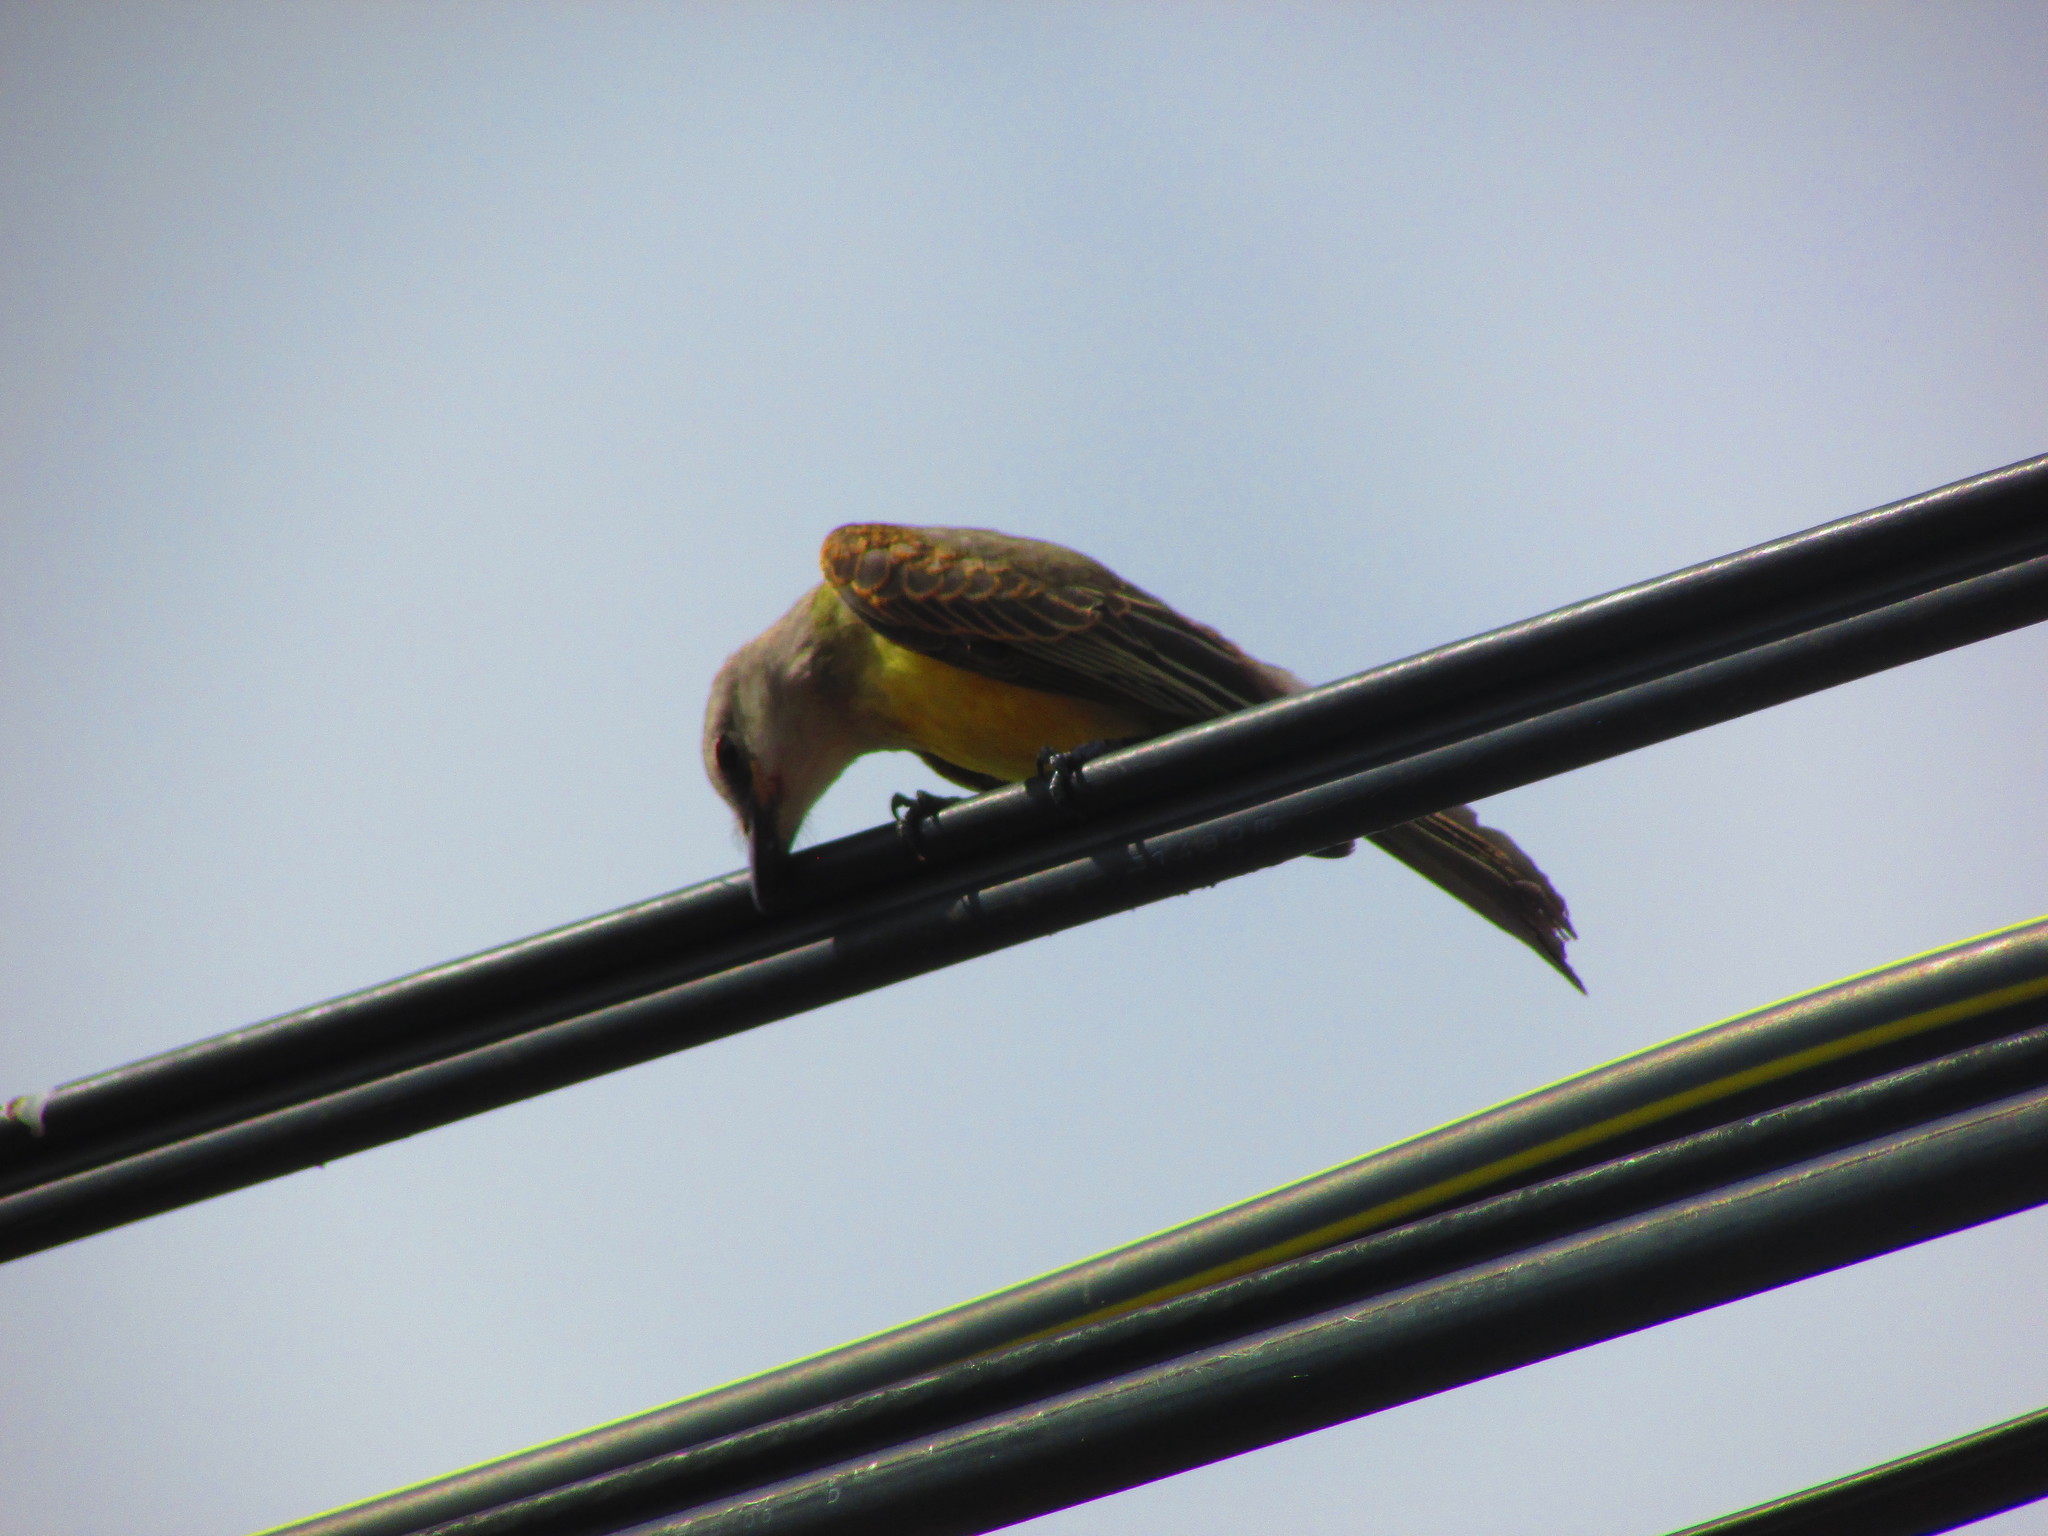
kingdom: Animalia
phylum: Chordata
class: Aves
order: Passeriformes
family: Tyrannidae
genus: Tyrannus
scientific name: Tyrannus melancholicus
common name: Tropical kingbird
